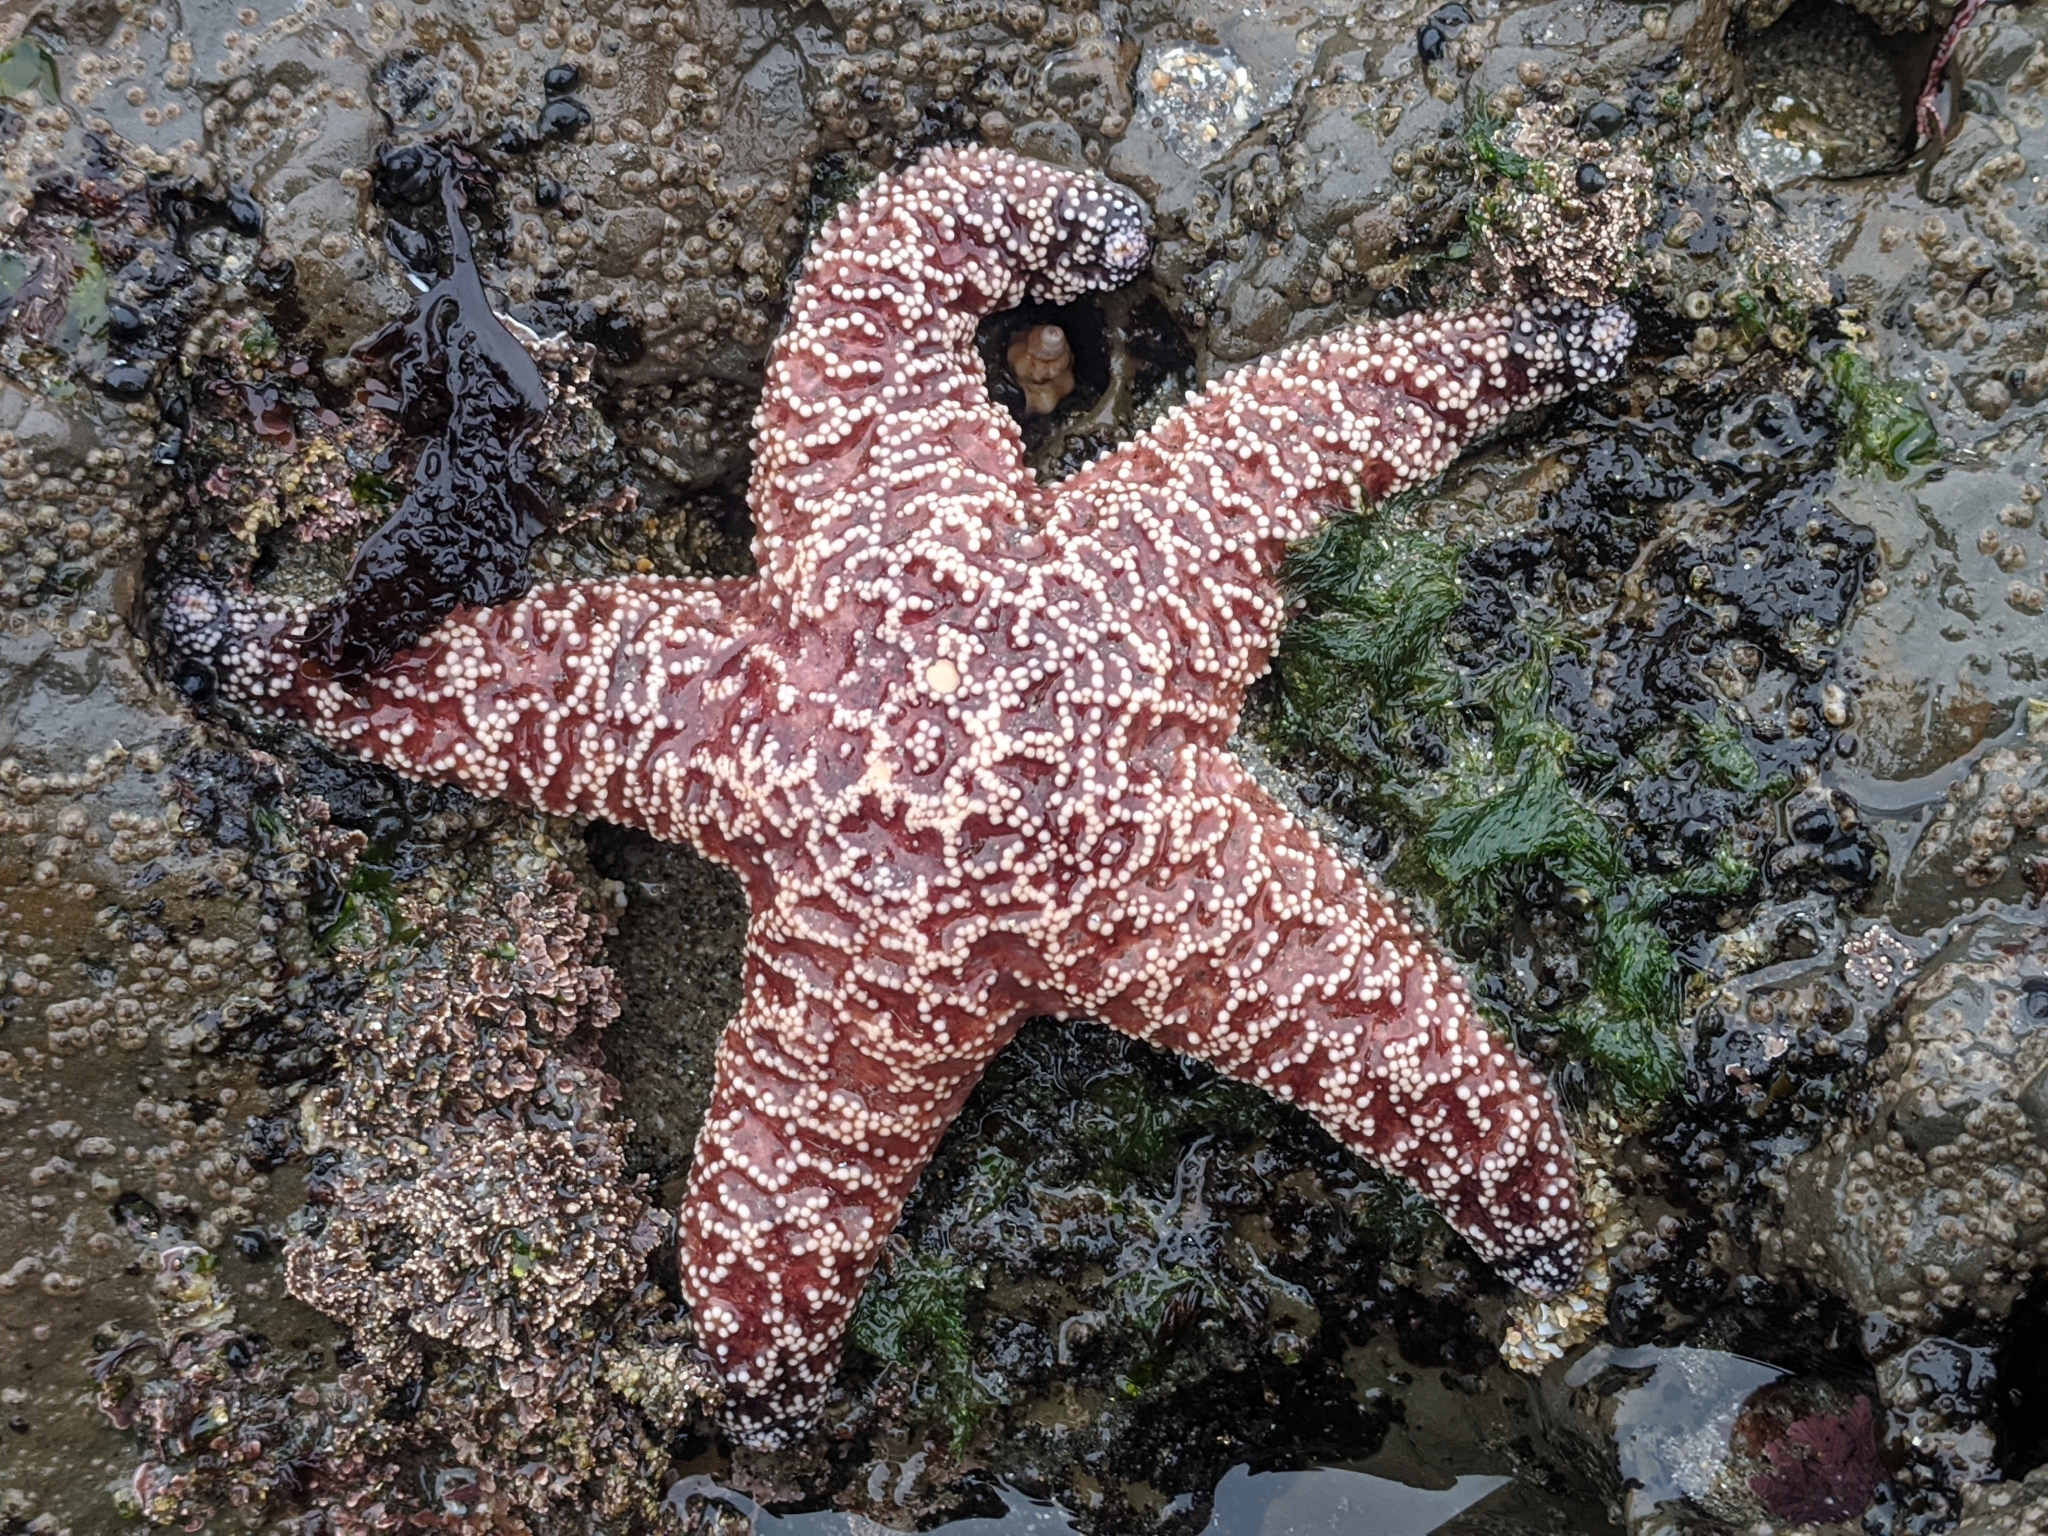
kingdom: Animalia
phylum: Echinodermata
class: Asteroidea
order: Forcipulatida
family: Asteriidae
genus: Pisaster
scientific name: Pisaster ochraceus
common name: Ochre stars
